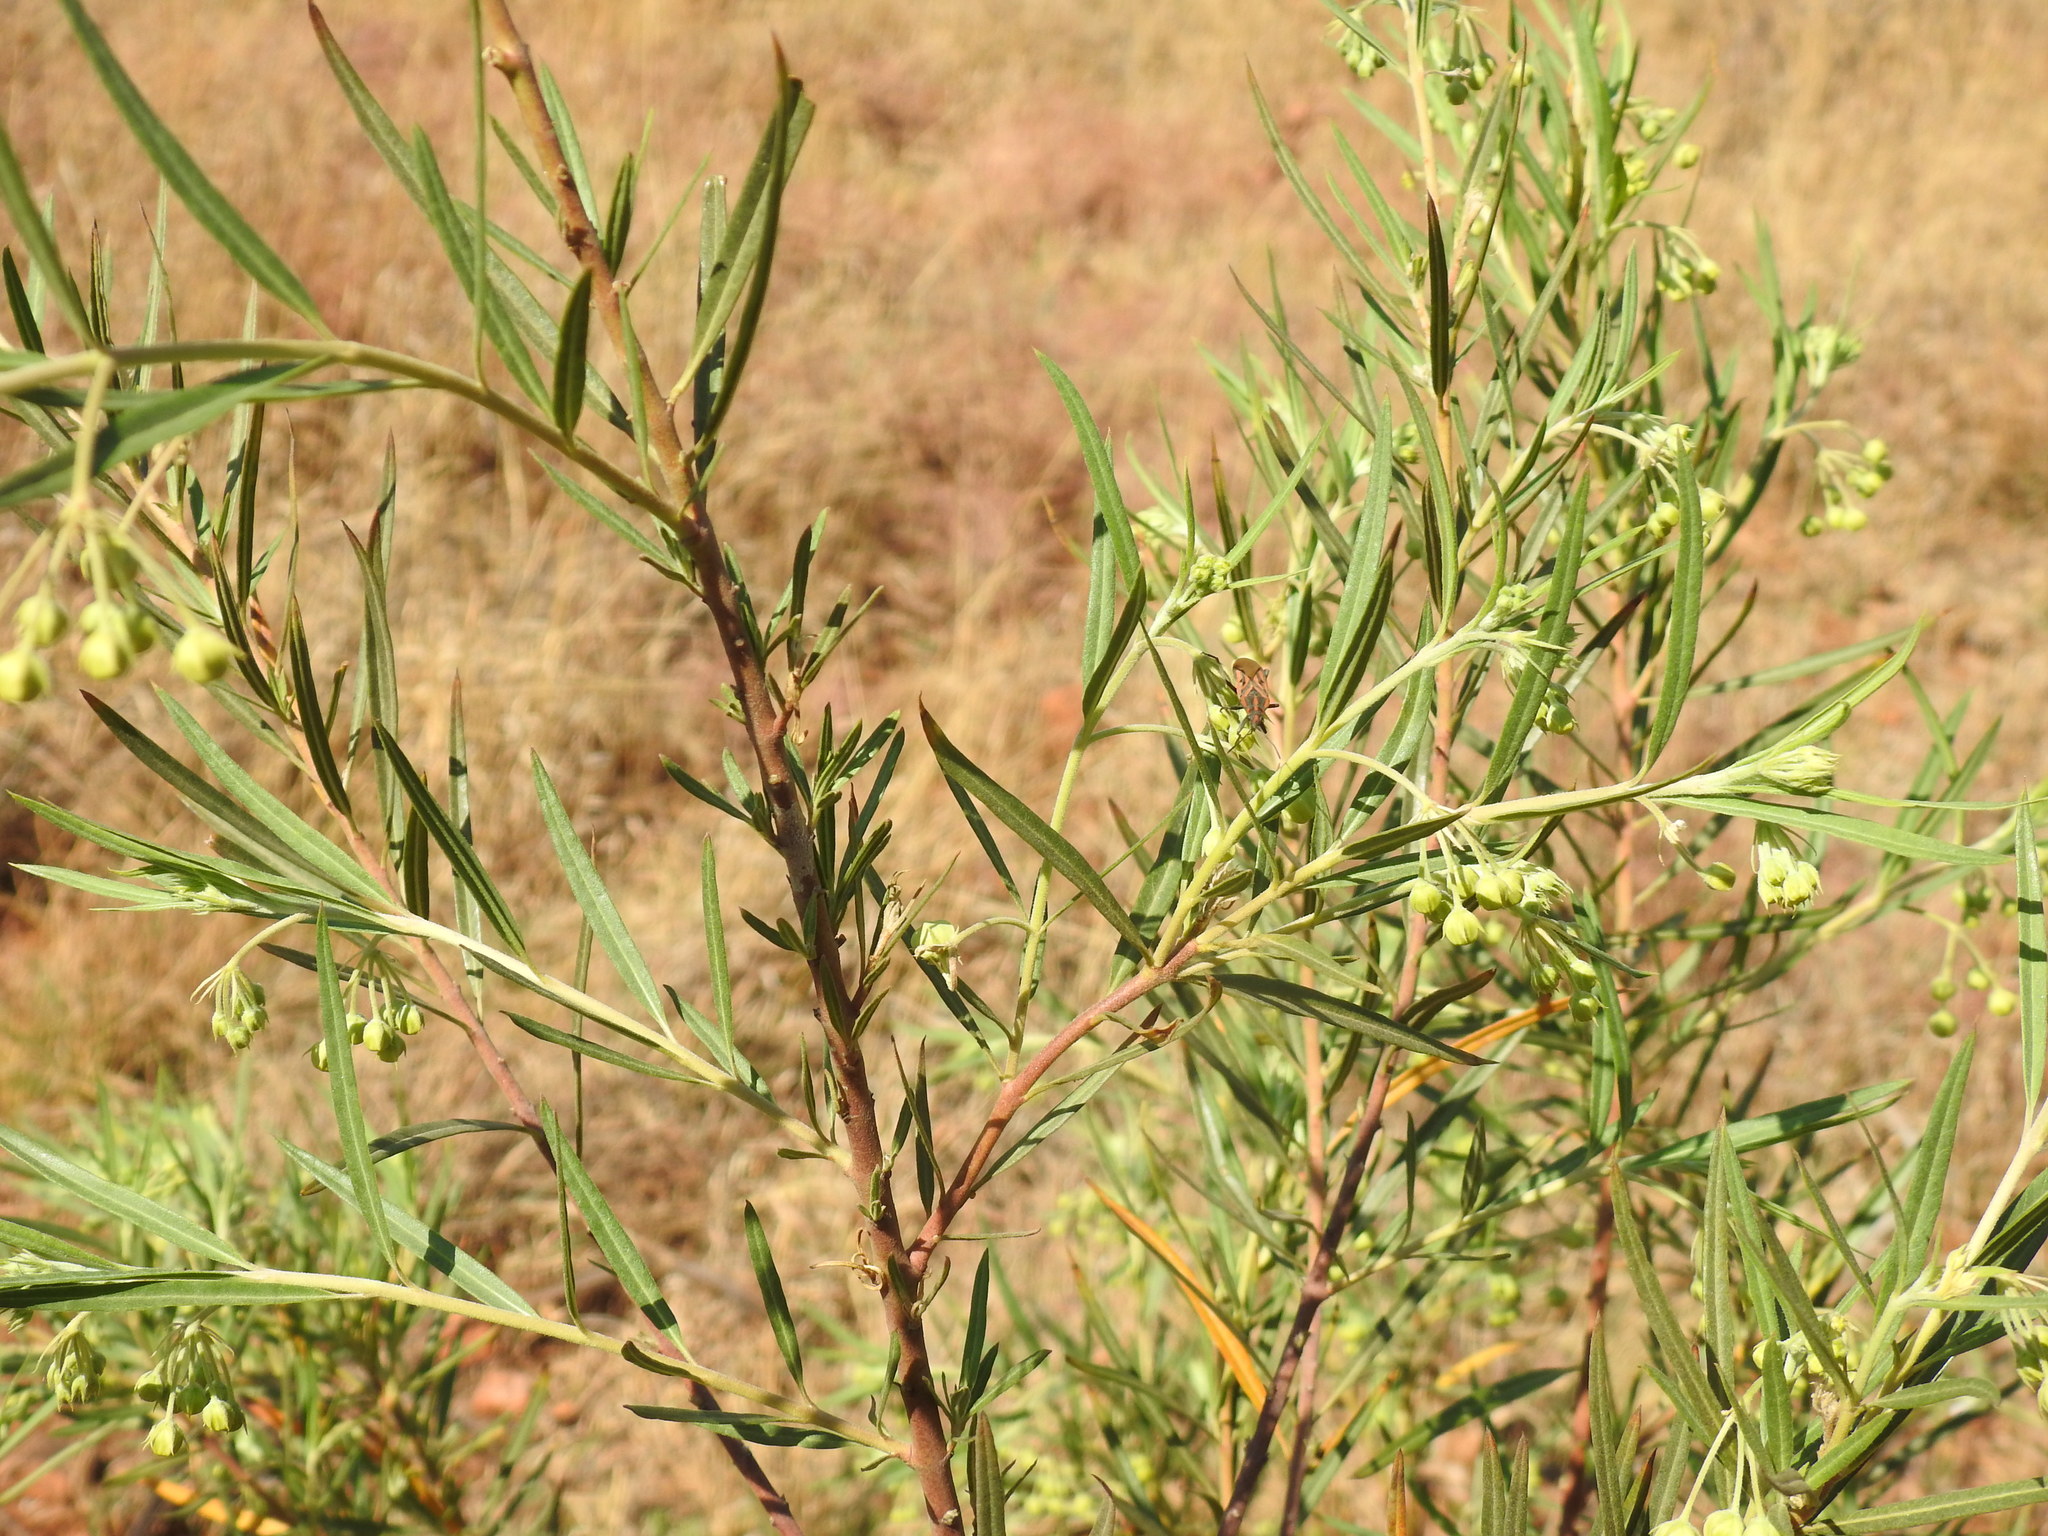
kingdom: Plantae
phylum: Tracheophyta
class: Magnoliopsida
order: Gentianales
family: Apocynaceae
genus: Gomphocarpus
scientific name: Gomphocarpus fruticosus
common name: Milkweed
